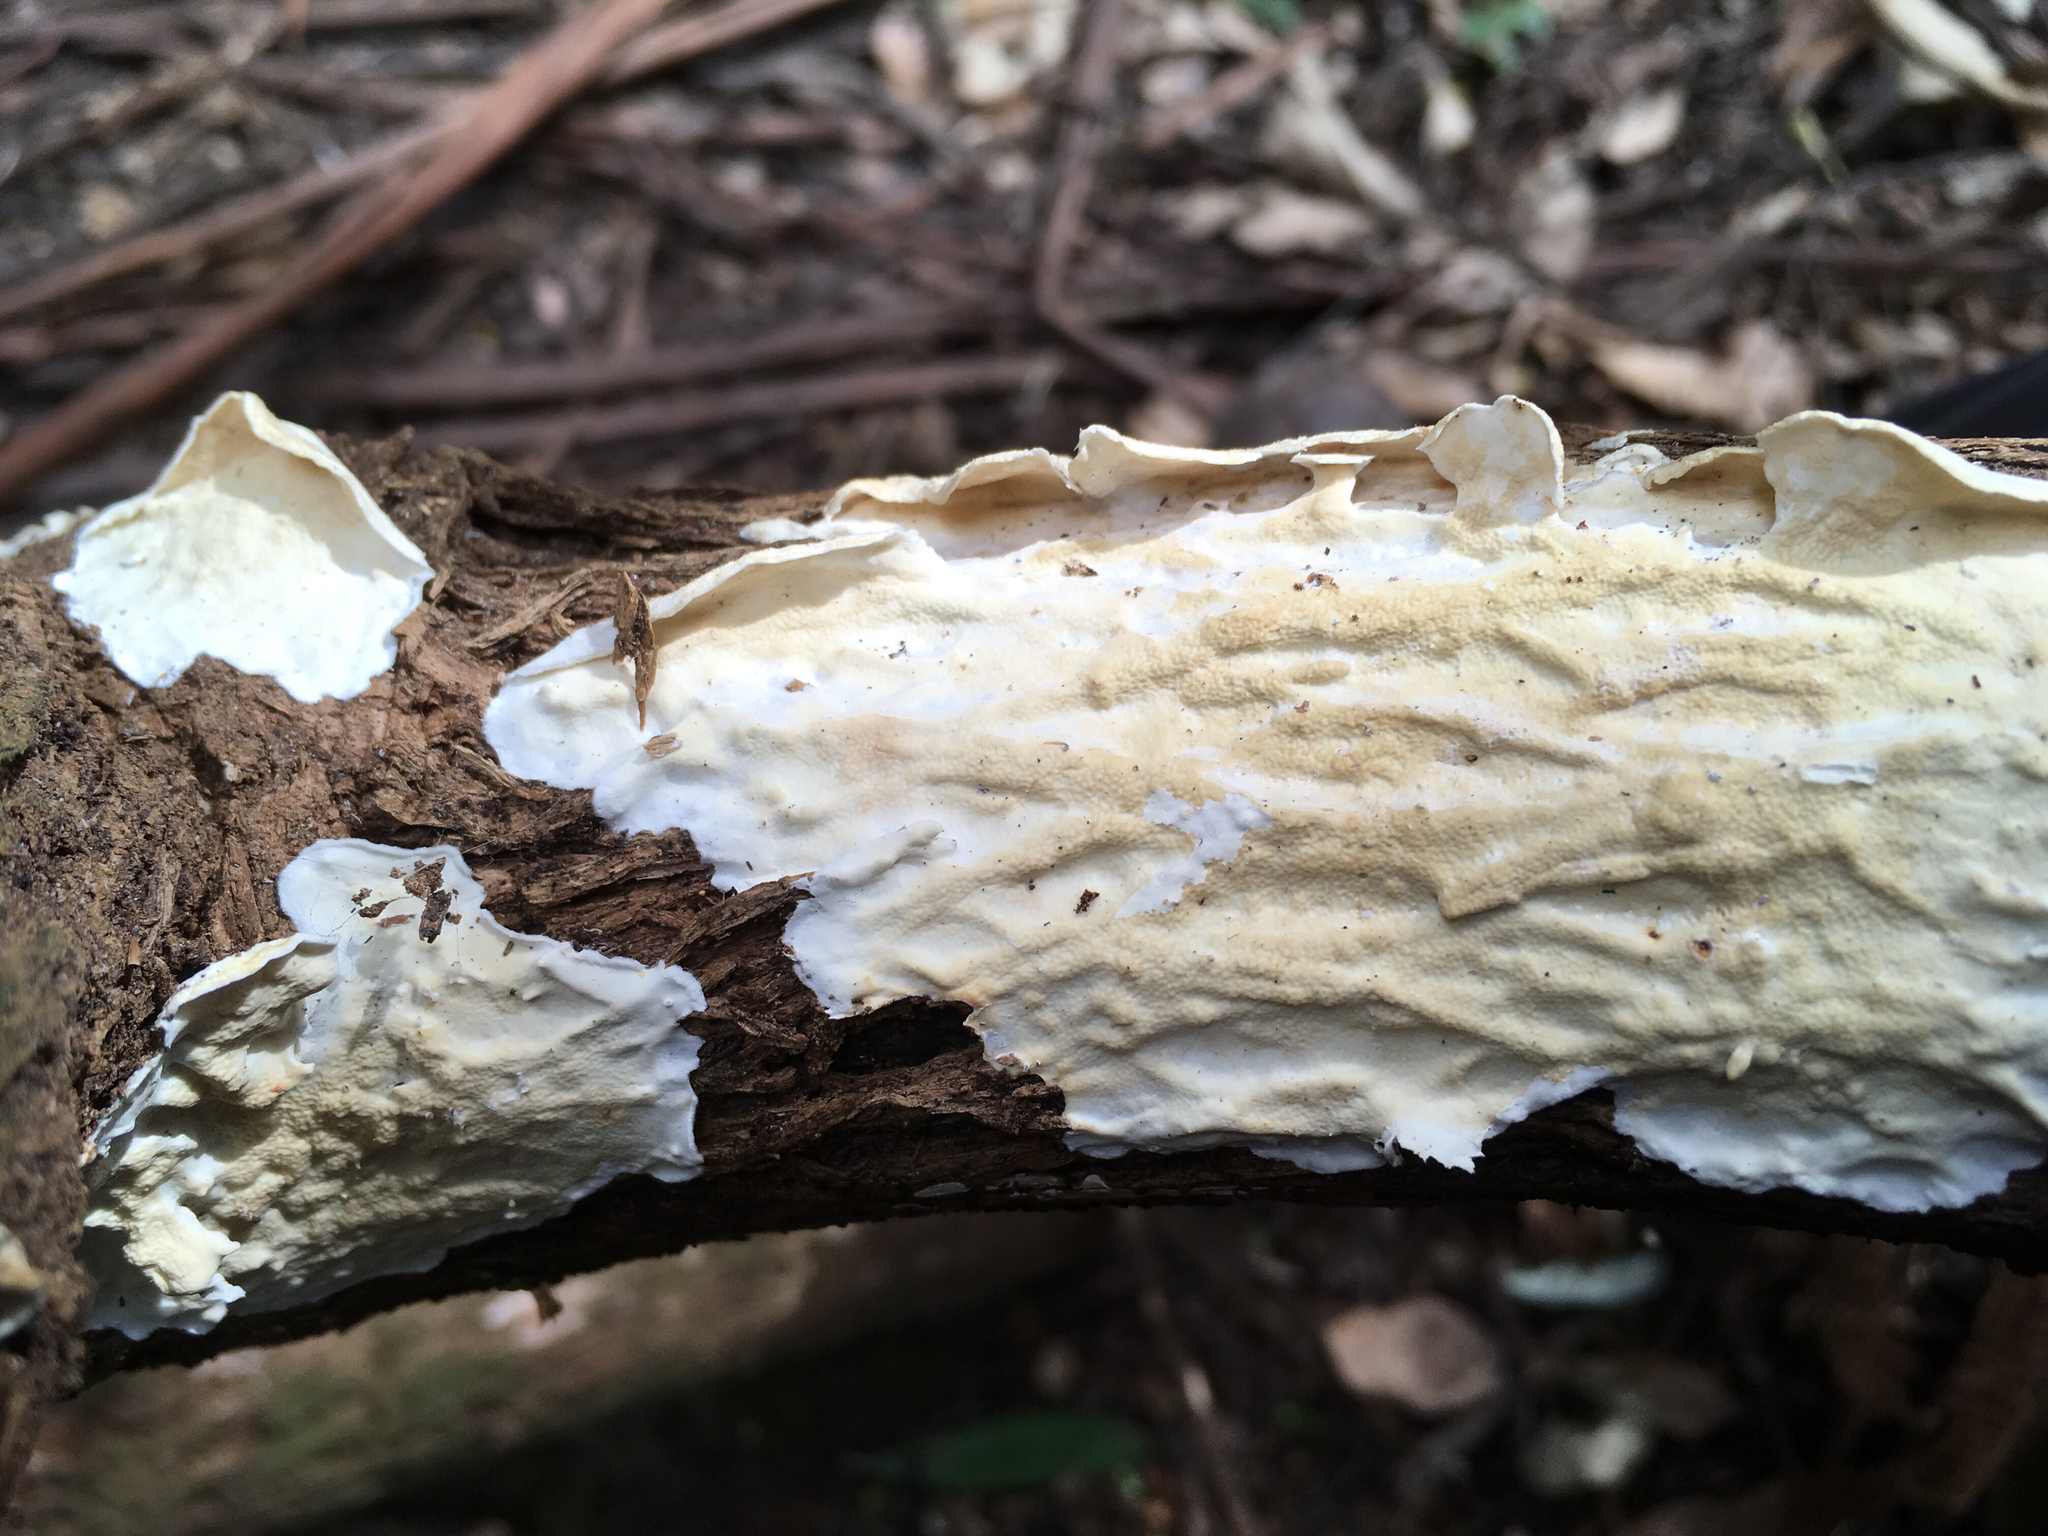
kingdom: Fungi
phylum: Basidiomycota
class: Agaricomycetes
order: Polyporales
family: Irpicaceae
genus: Byssomerulius
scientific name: Byssomerulius corium
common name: Netted crust
